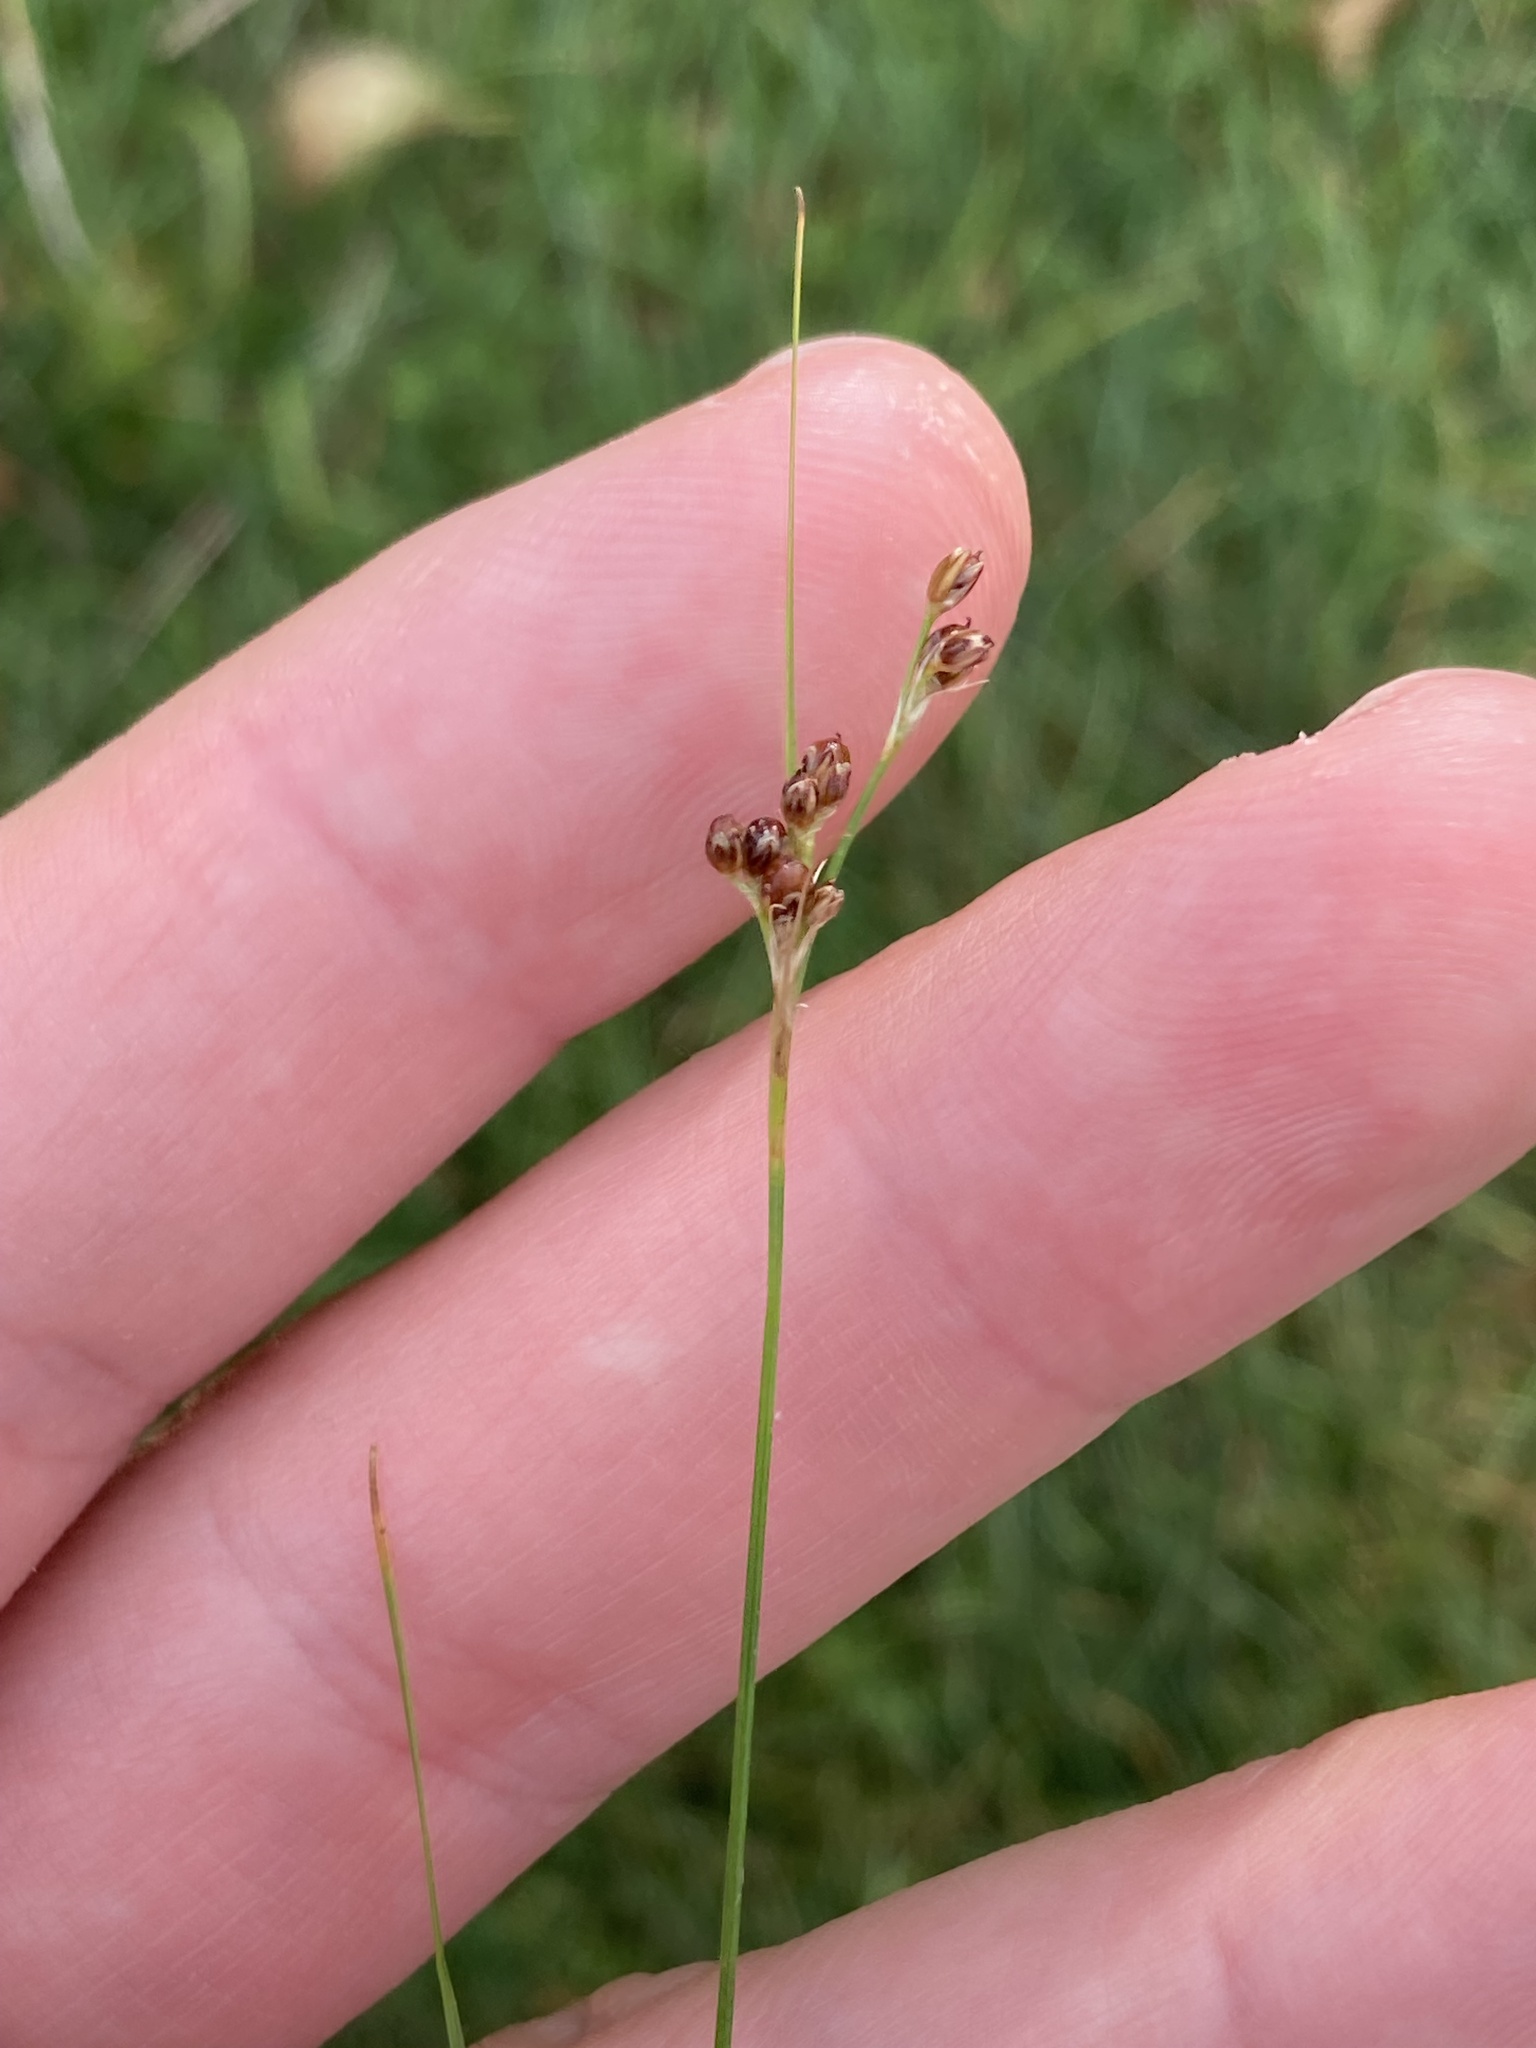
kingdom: Plantae
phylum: Tracheophyta
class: Liliopsida
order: Poales
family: Juncaceae
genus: Juncus
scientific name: Juncus compressus
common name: Round-fruited rush
